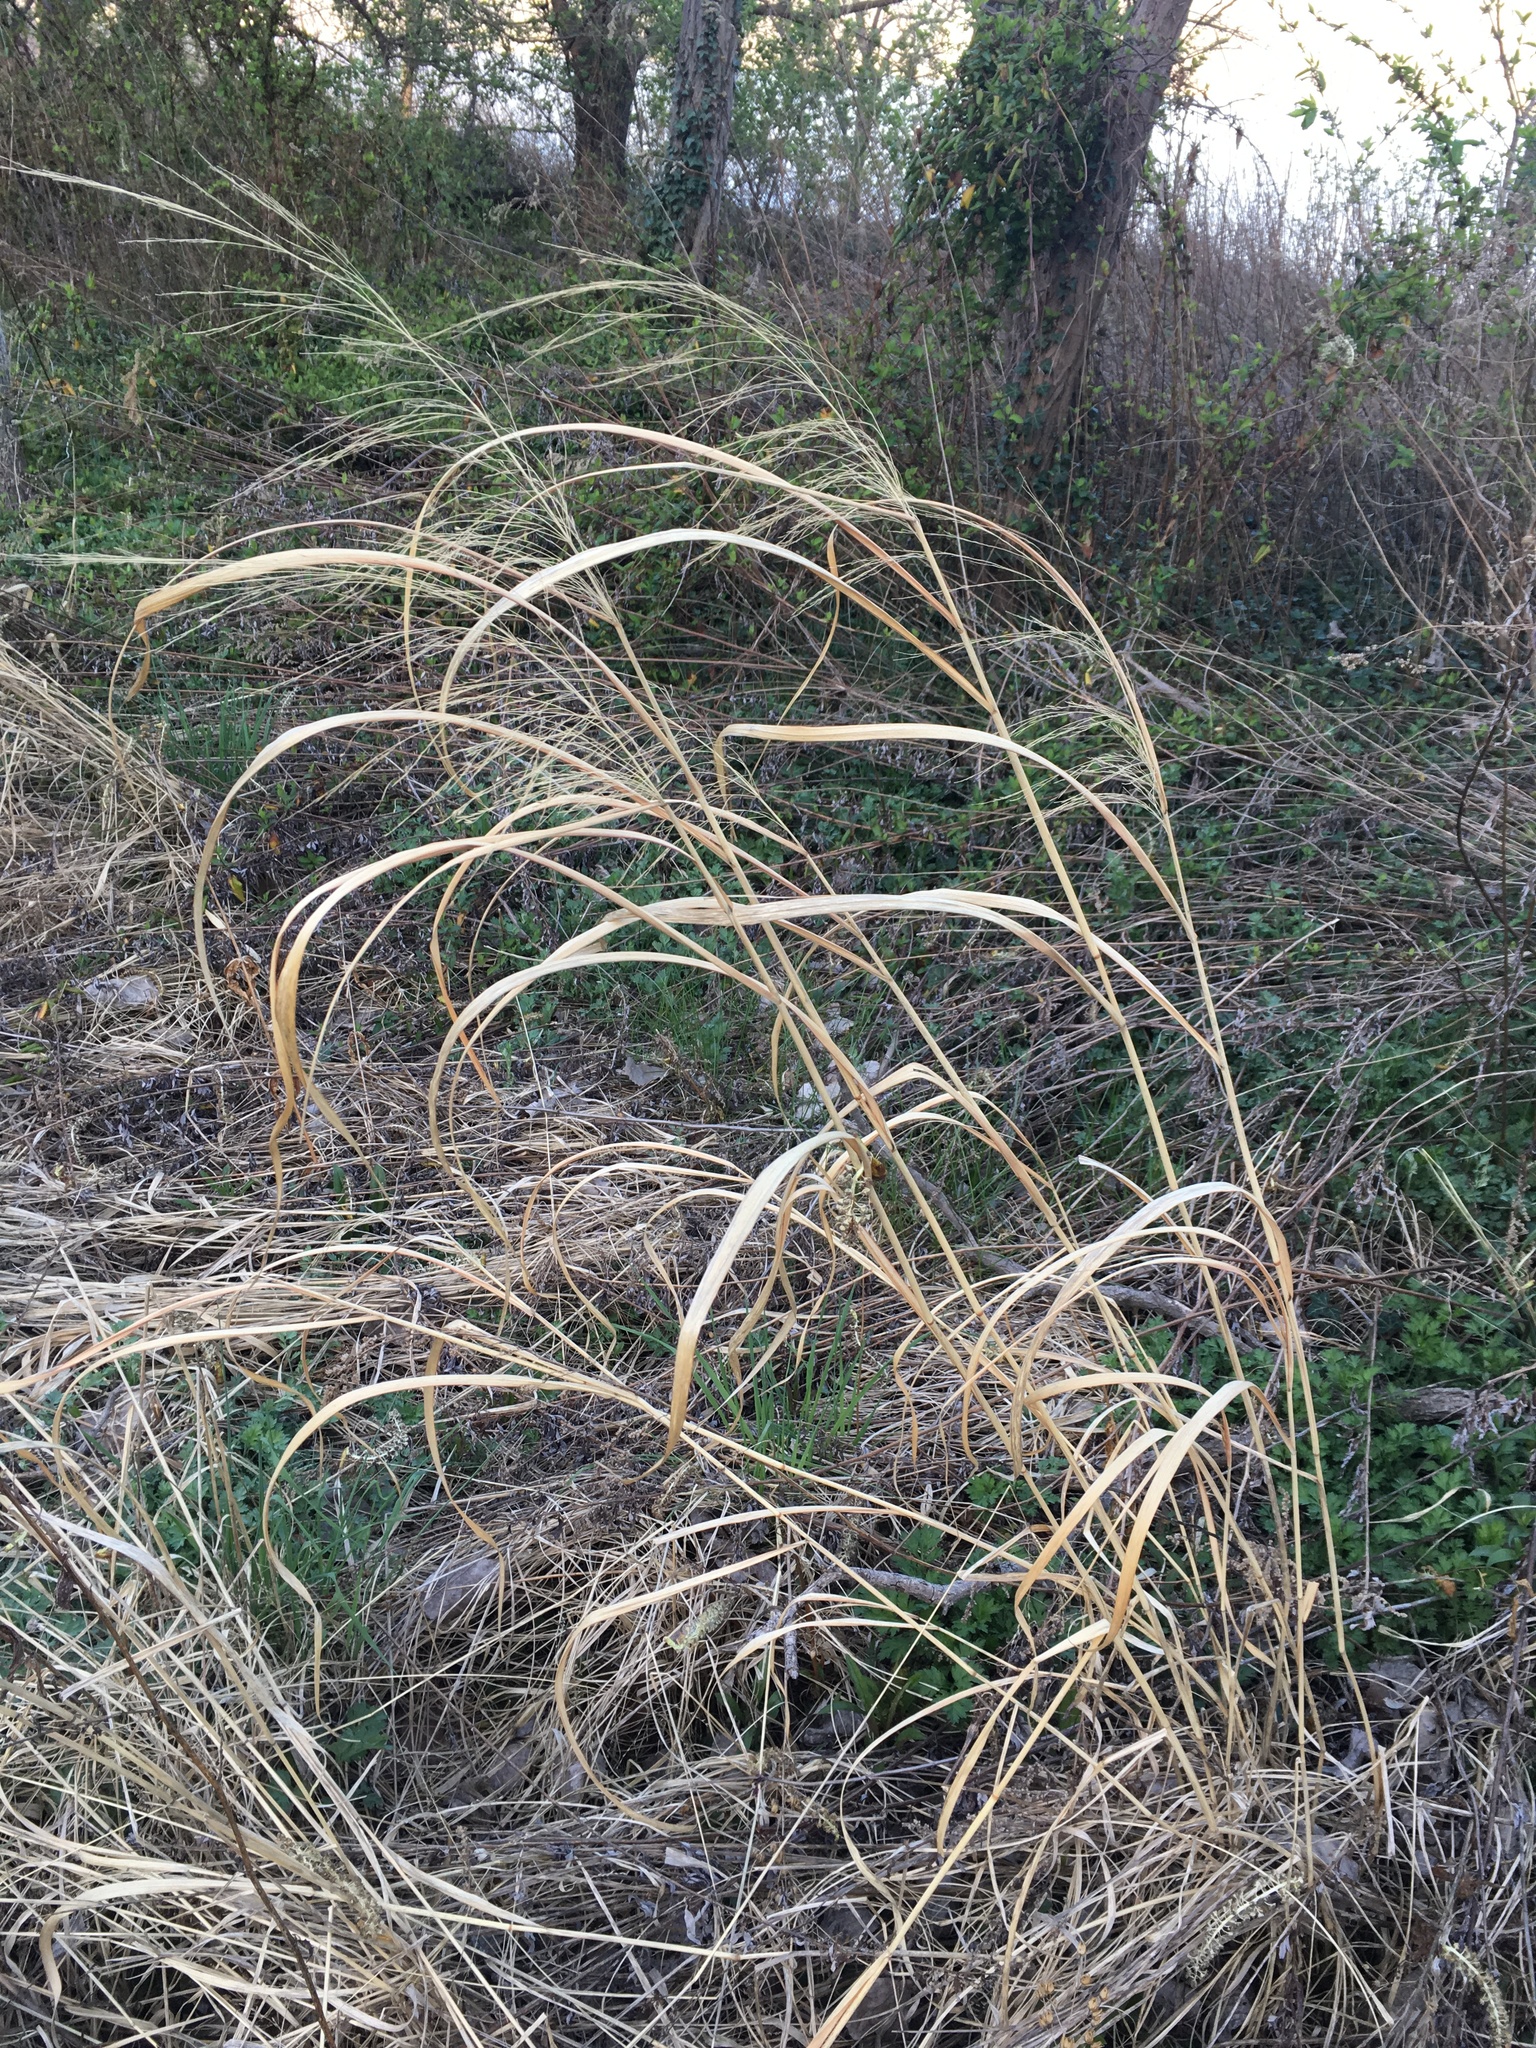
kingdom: Plantae
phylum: Tracheophyta
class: Liliopsida
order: Poales
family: Poaceae
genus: Panicum
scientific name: Panicum virgatum
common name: Switchgrass
